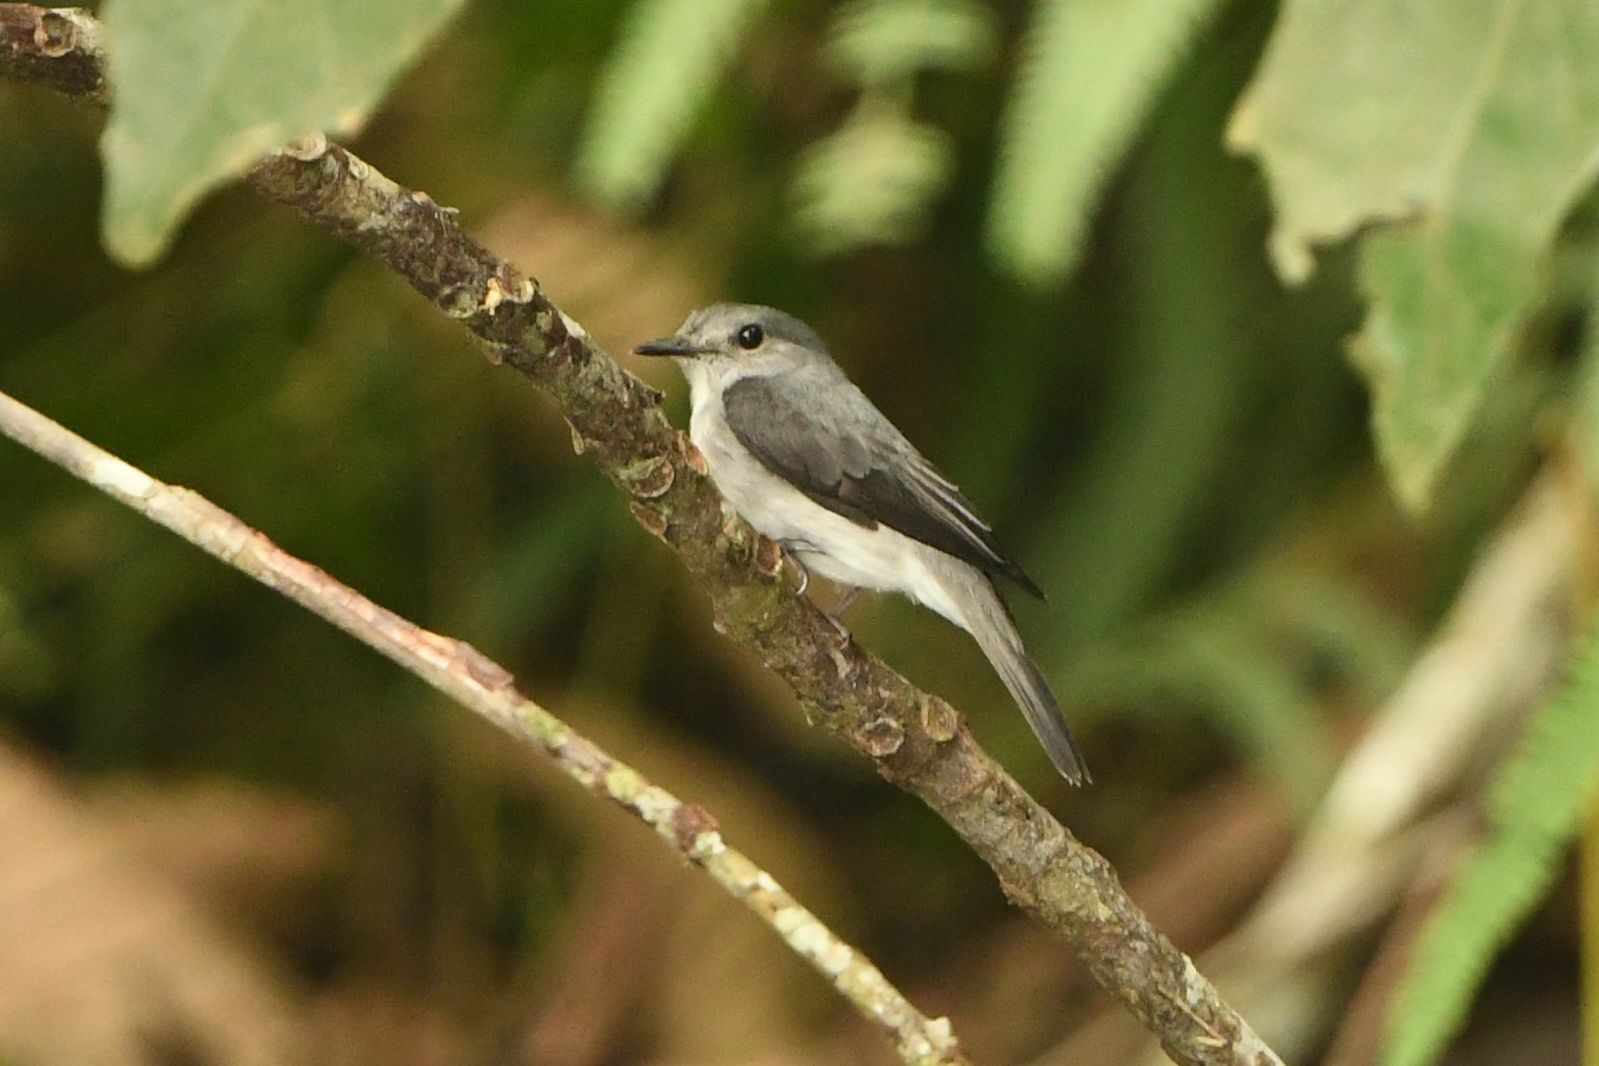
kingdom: Animalia
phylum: Chordata
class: Aves
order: Passeriformes
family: Muscicapidae
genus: Muscicapa
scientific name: Muscicapa cassini
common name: Cassin's flycatcher
